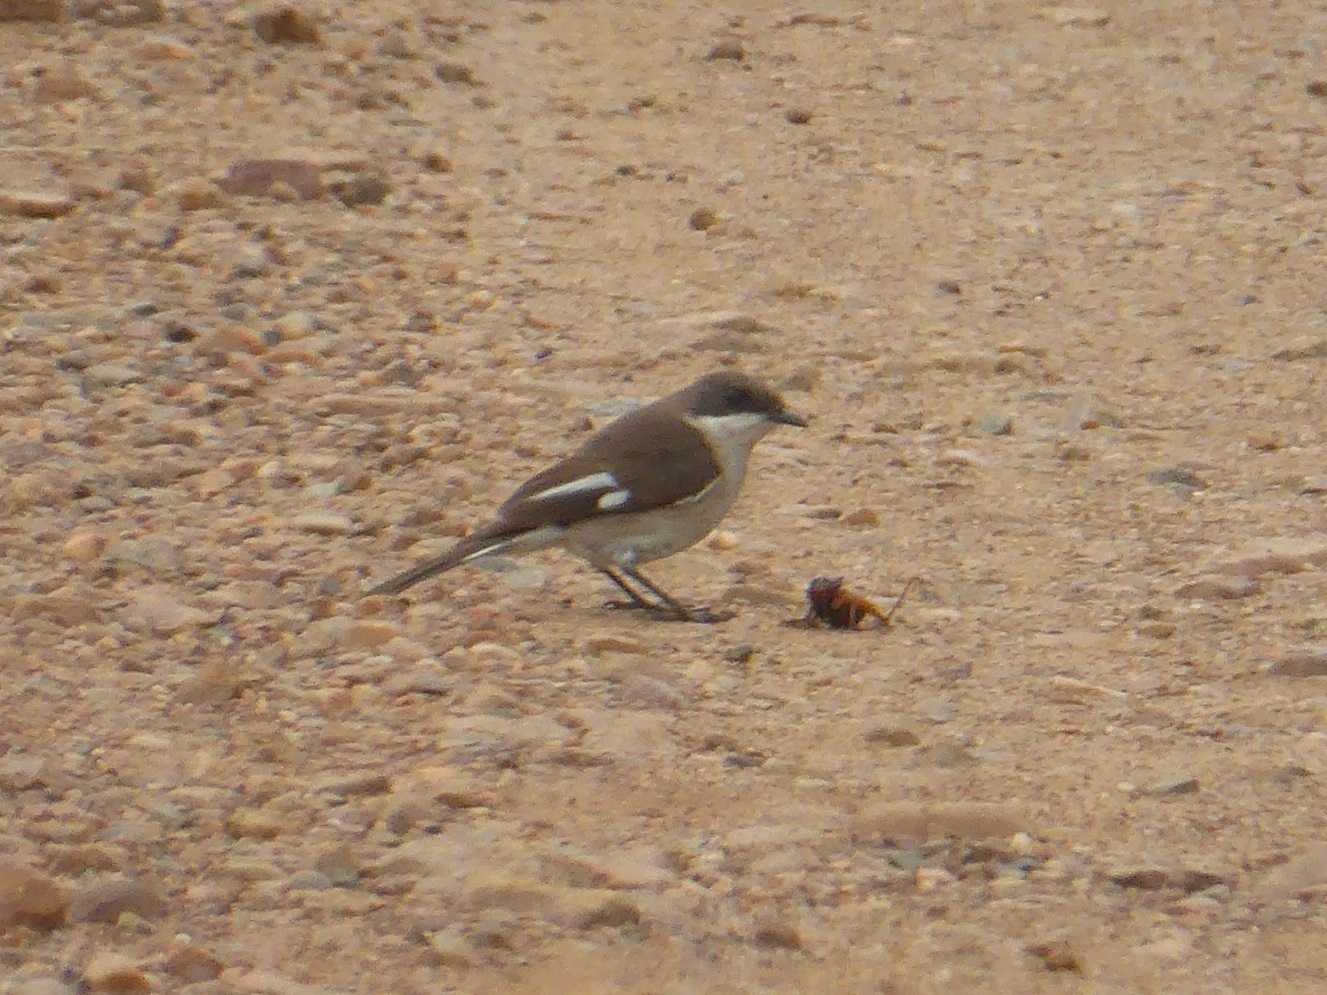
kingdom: Animalia
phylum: Chordata
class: Aves
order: Passeriformes
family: Muscicapidae
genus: Sigelus
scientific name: Sigelus silens
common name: Fiscal flycatcher
